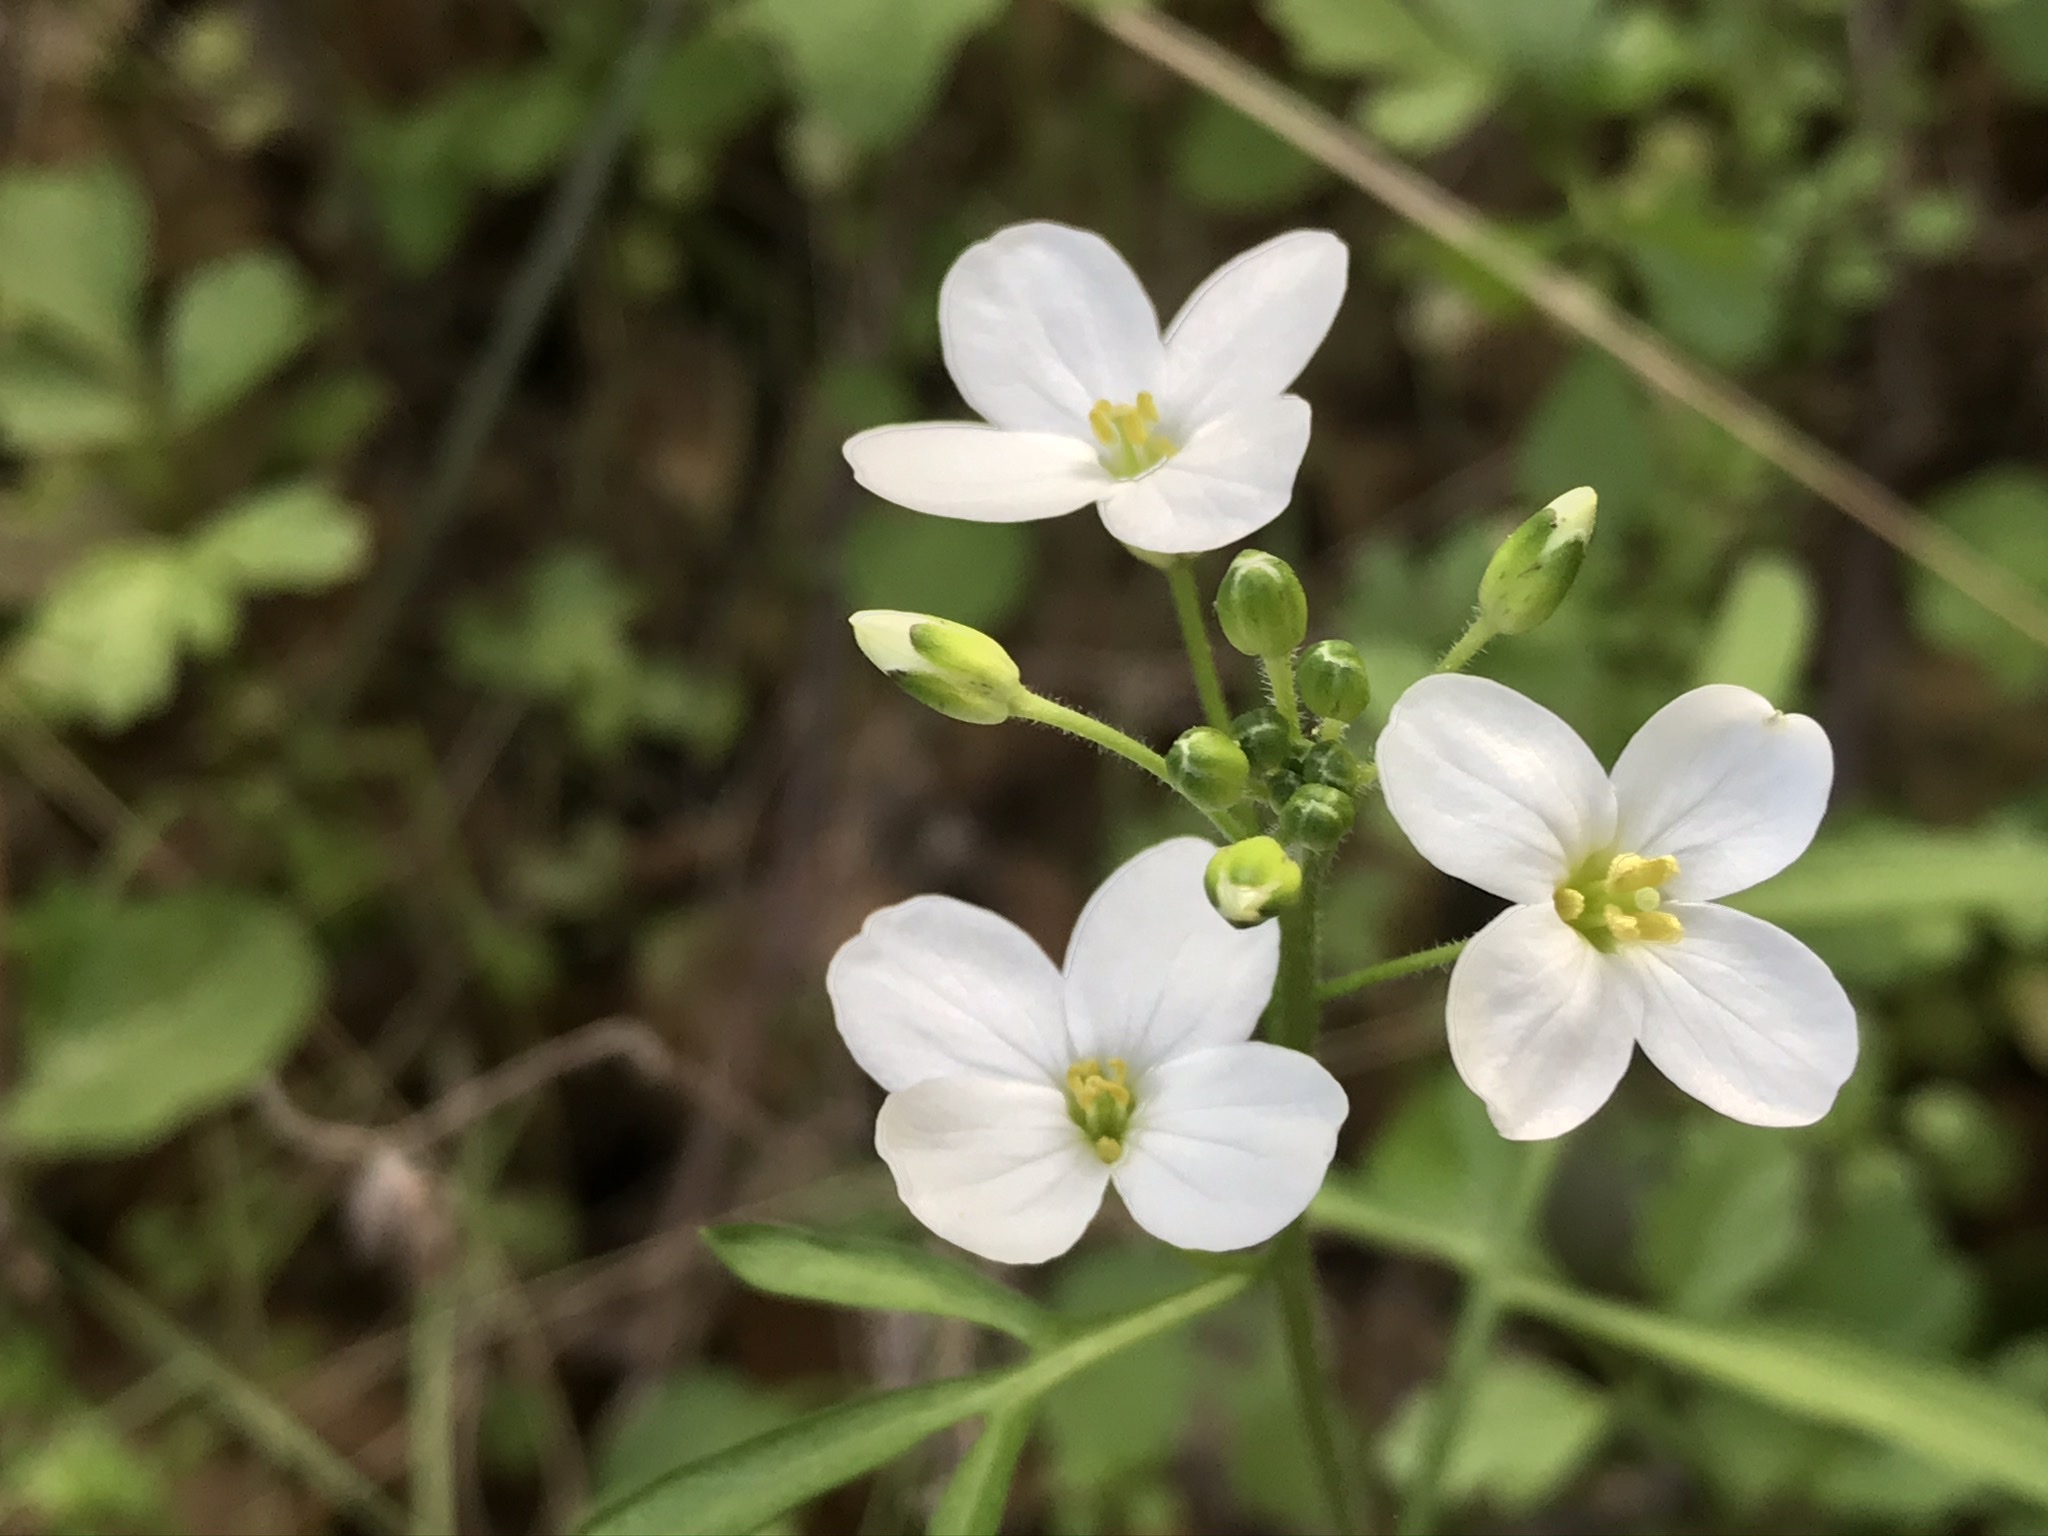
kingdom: Plantae
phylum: Tracheophyta
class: Magnoliopsida
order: Brassicales
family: Brassicaceae
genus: Cardamine
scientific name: Cardamine californica
